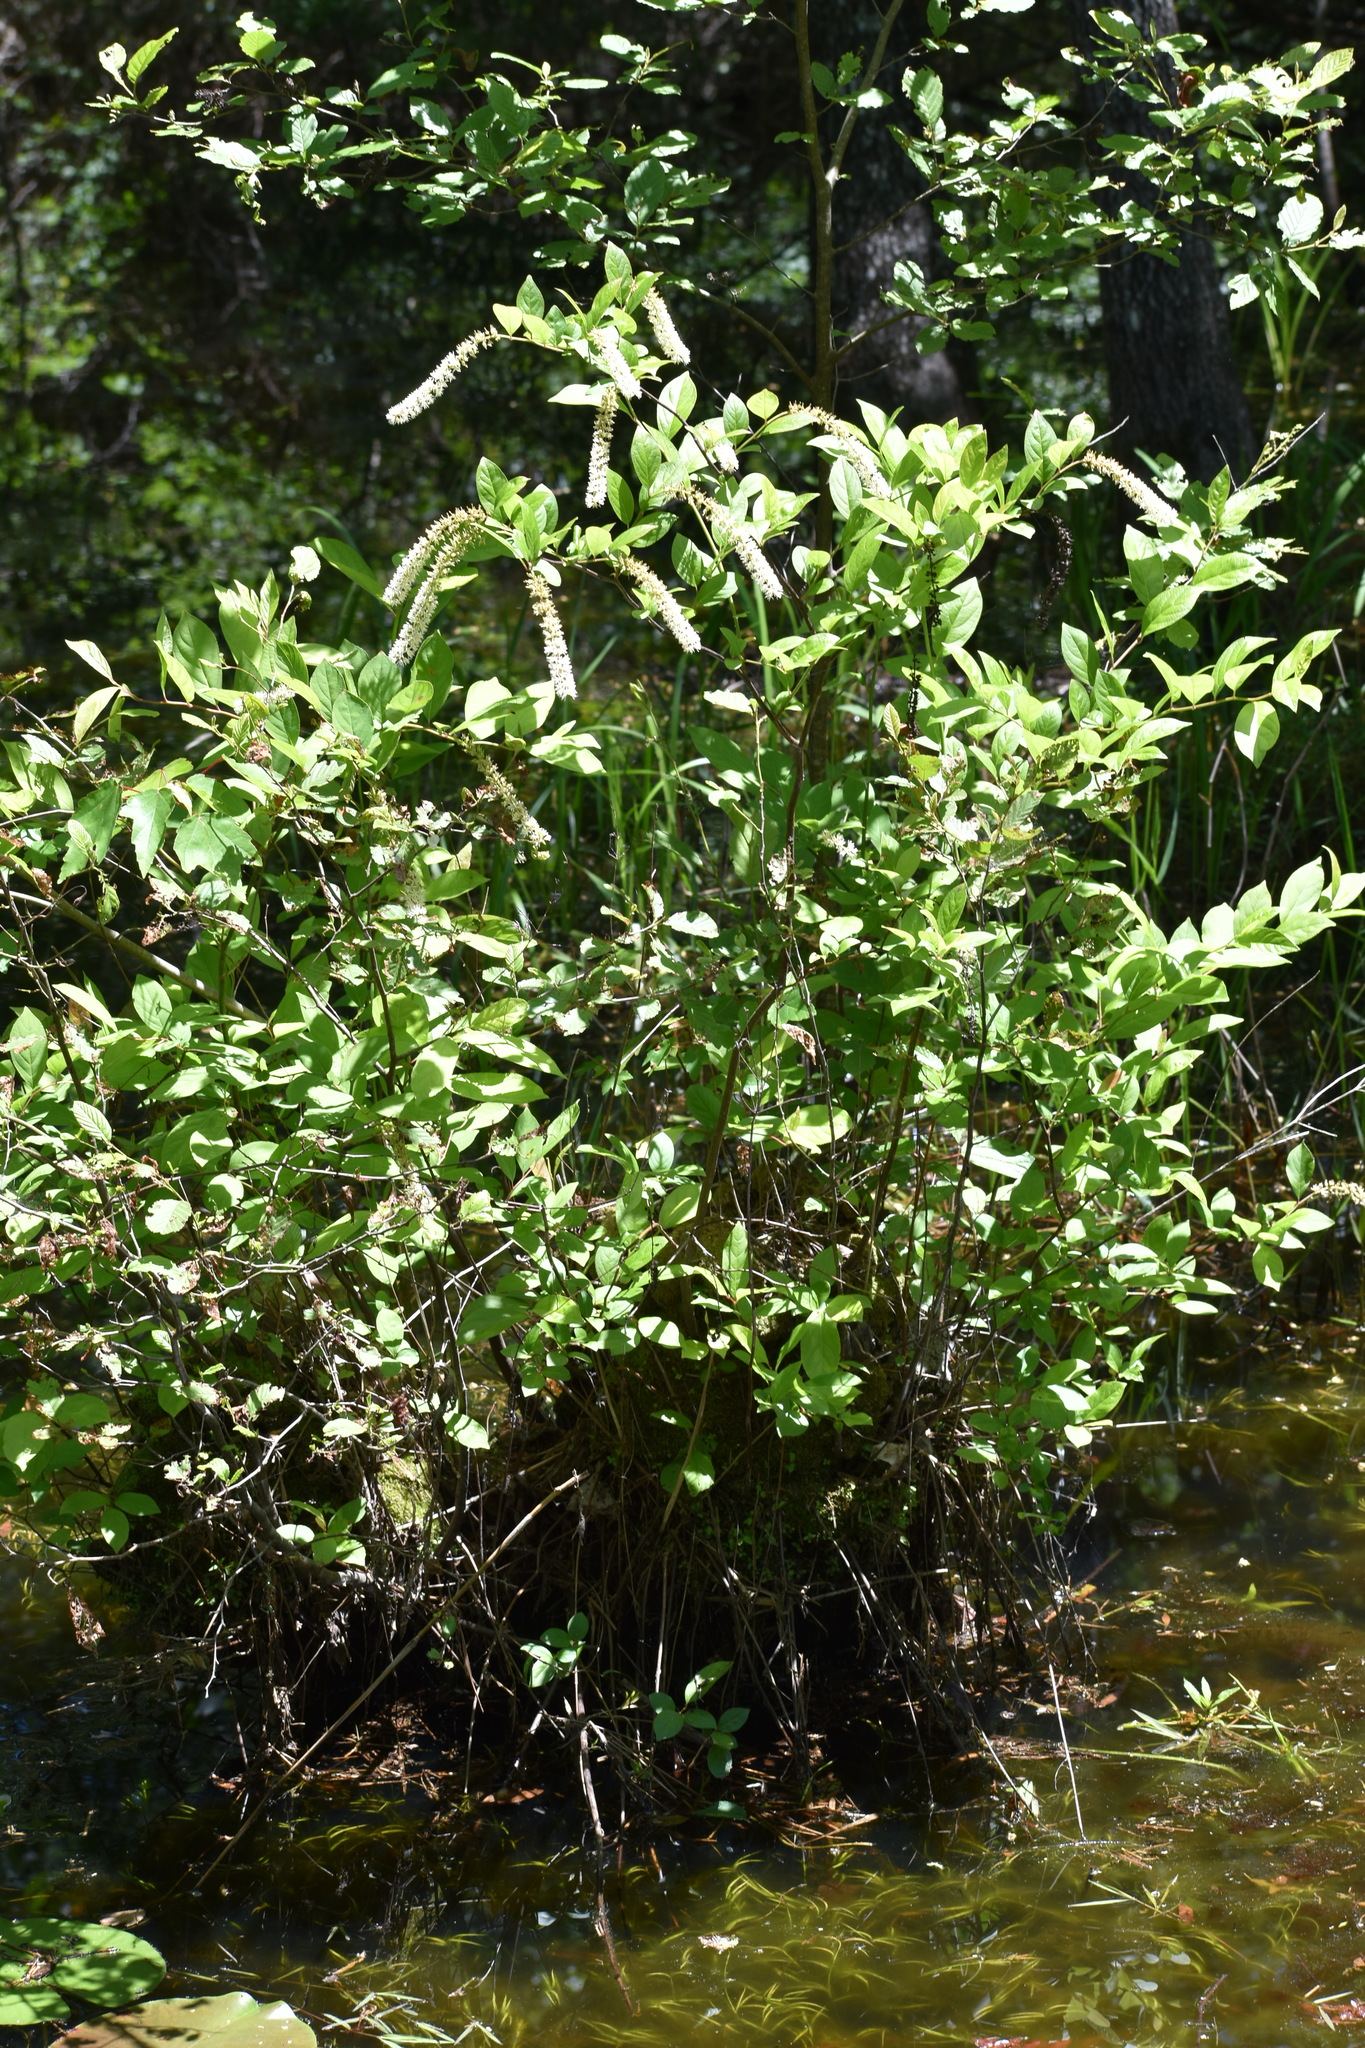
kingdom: Plantae
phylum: Tracheophyta
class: Magnoliopsida
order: Saxifragales
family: Iteaceae
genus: Itea
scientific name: Itea virginica
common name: Sweetspire
